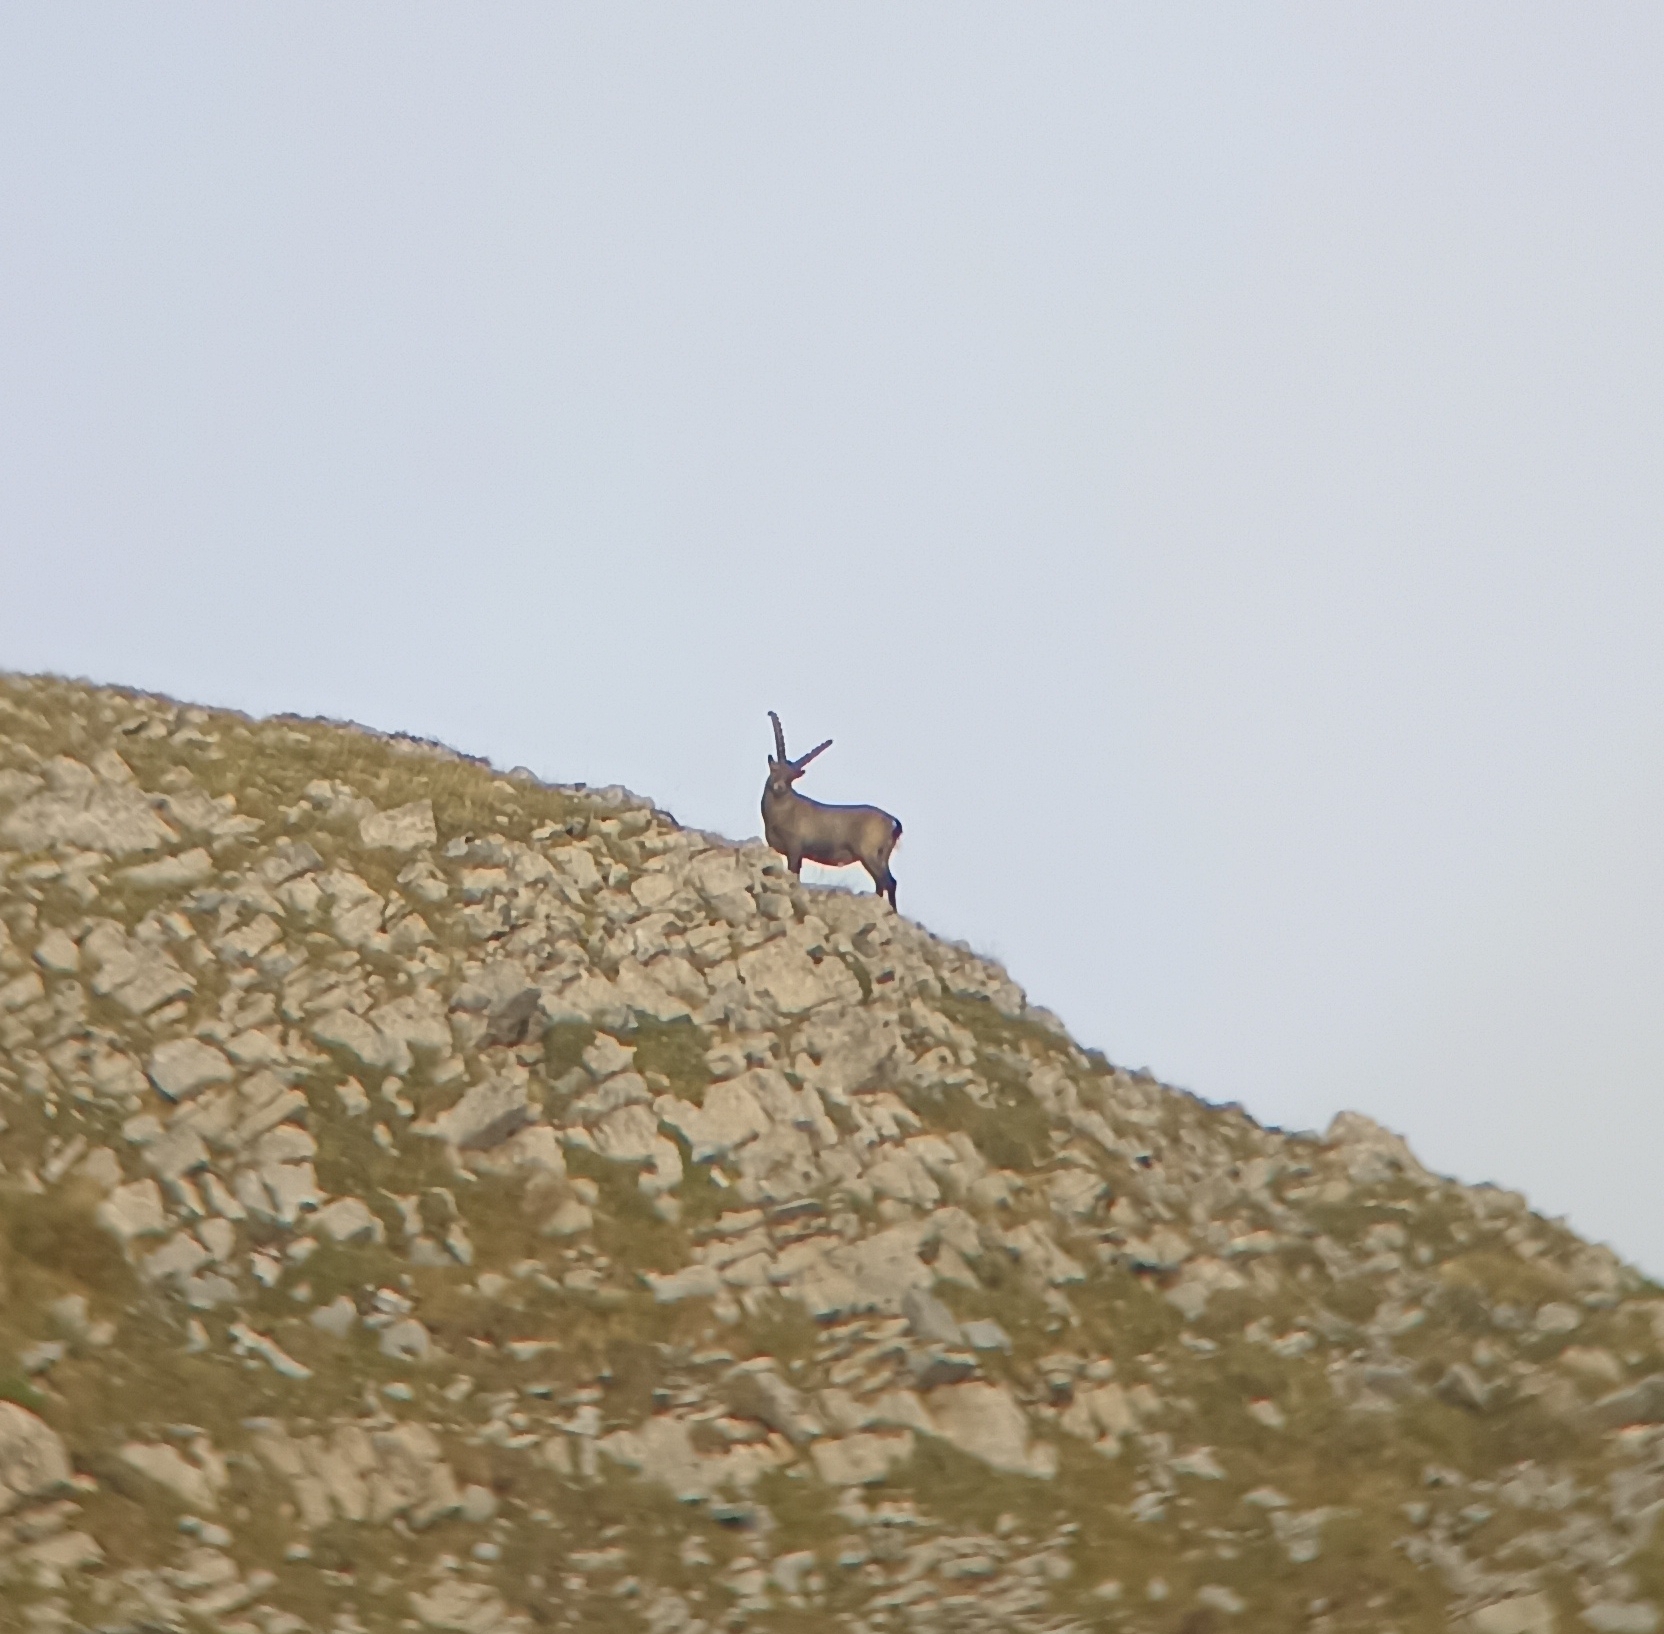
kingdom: Animalia
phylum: Chordata
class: Mammalia
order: Artiodactyla
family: Bovidae
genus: Capra
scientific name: Capra ibex
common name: Alpine ibex
